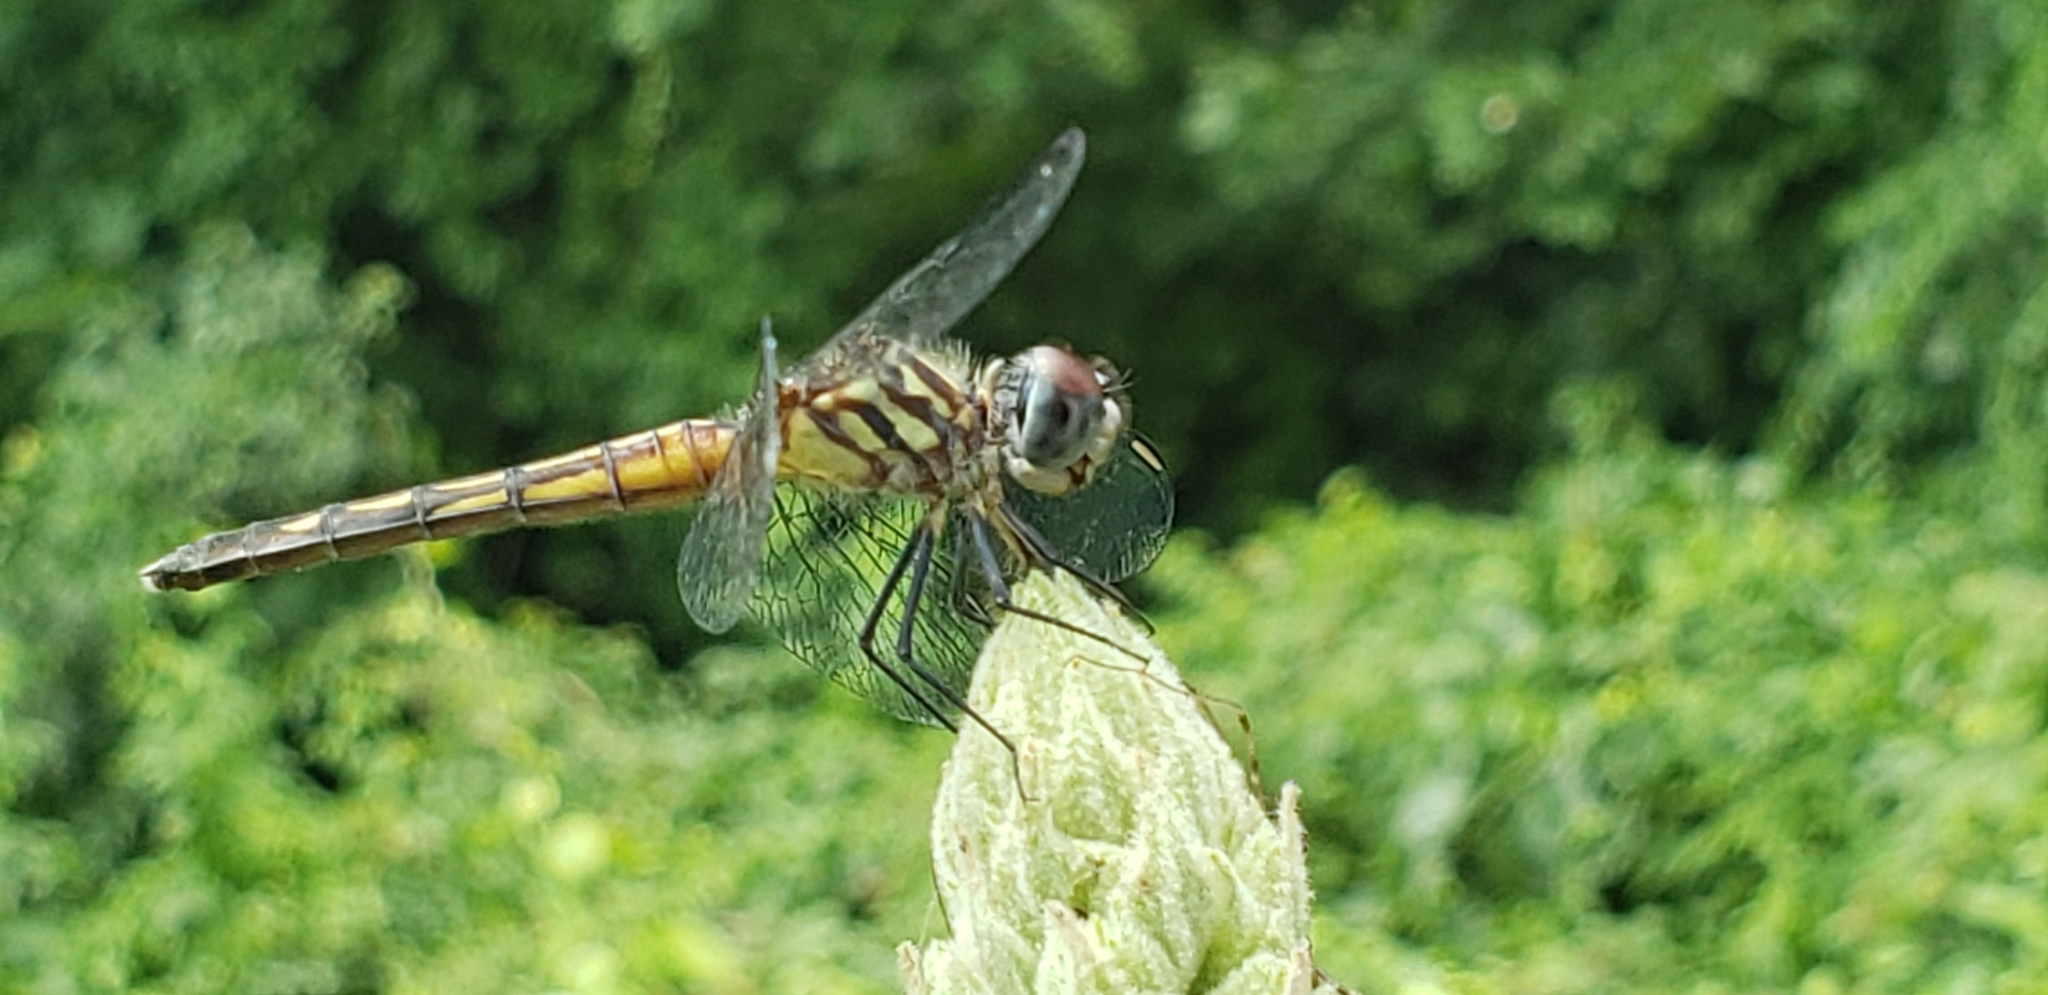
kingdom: Animalia
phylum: Arthropoda
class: Insecta
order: Odonata
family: Libellulidae
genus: Pachydiplax
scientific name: Pachydiplax longipennis
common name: Blue dasher
